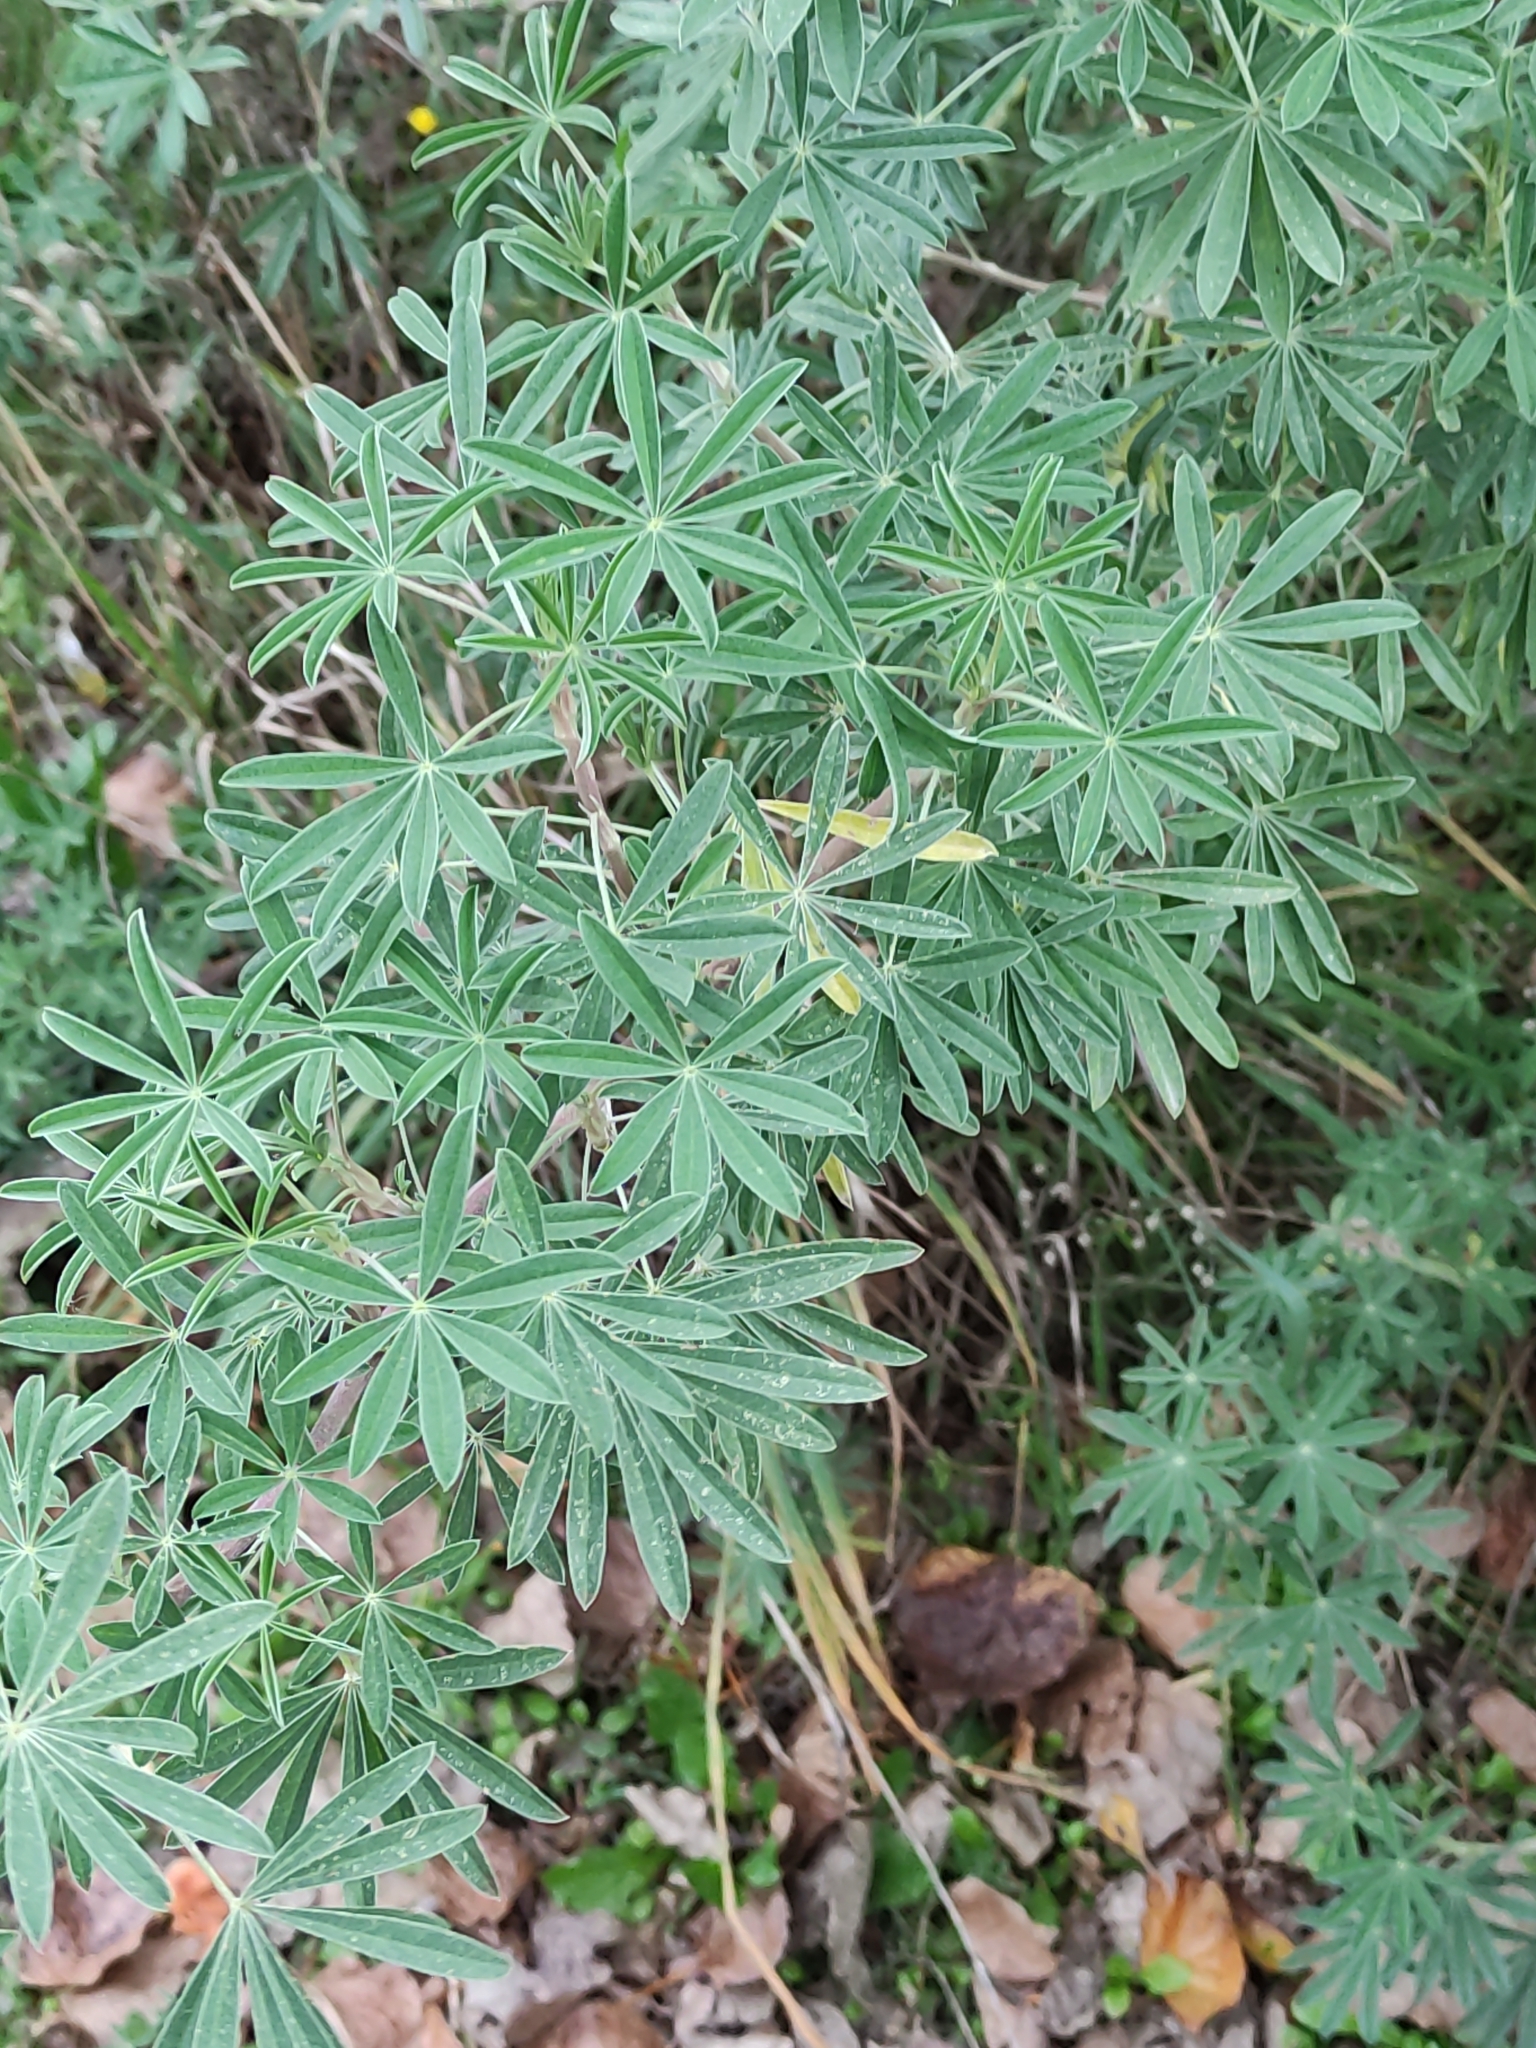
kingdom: Plantae
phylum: Tracheophyta
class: Magnoliopsida
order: Fabales
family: Fabaceae
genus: Lupinus
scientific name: Lupinus arboreus
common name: Yellow bush lupine
